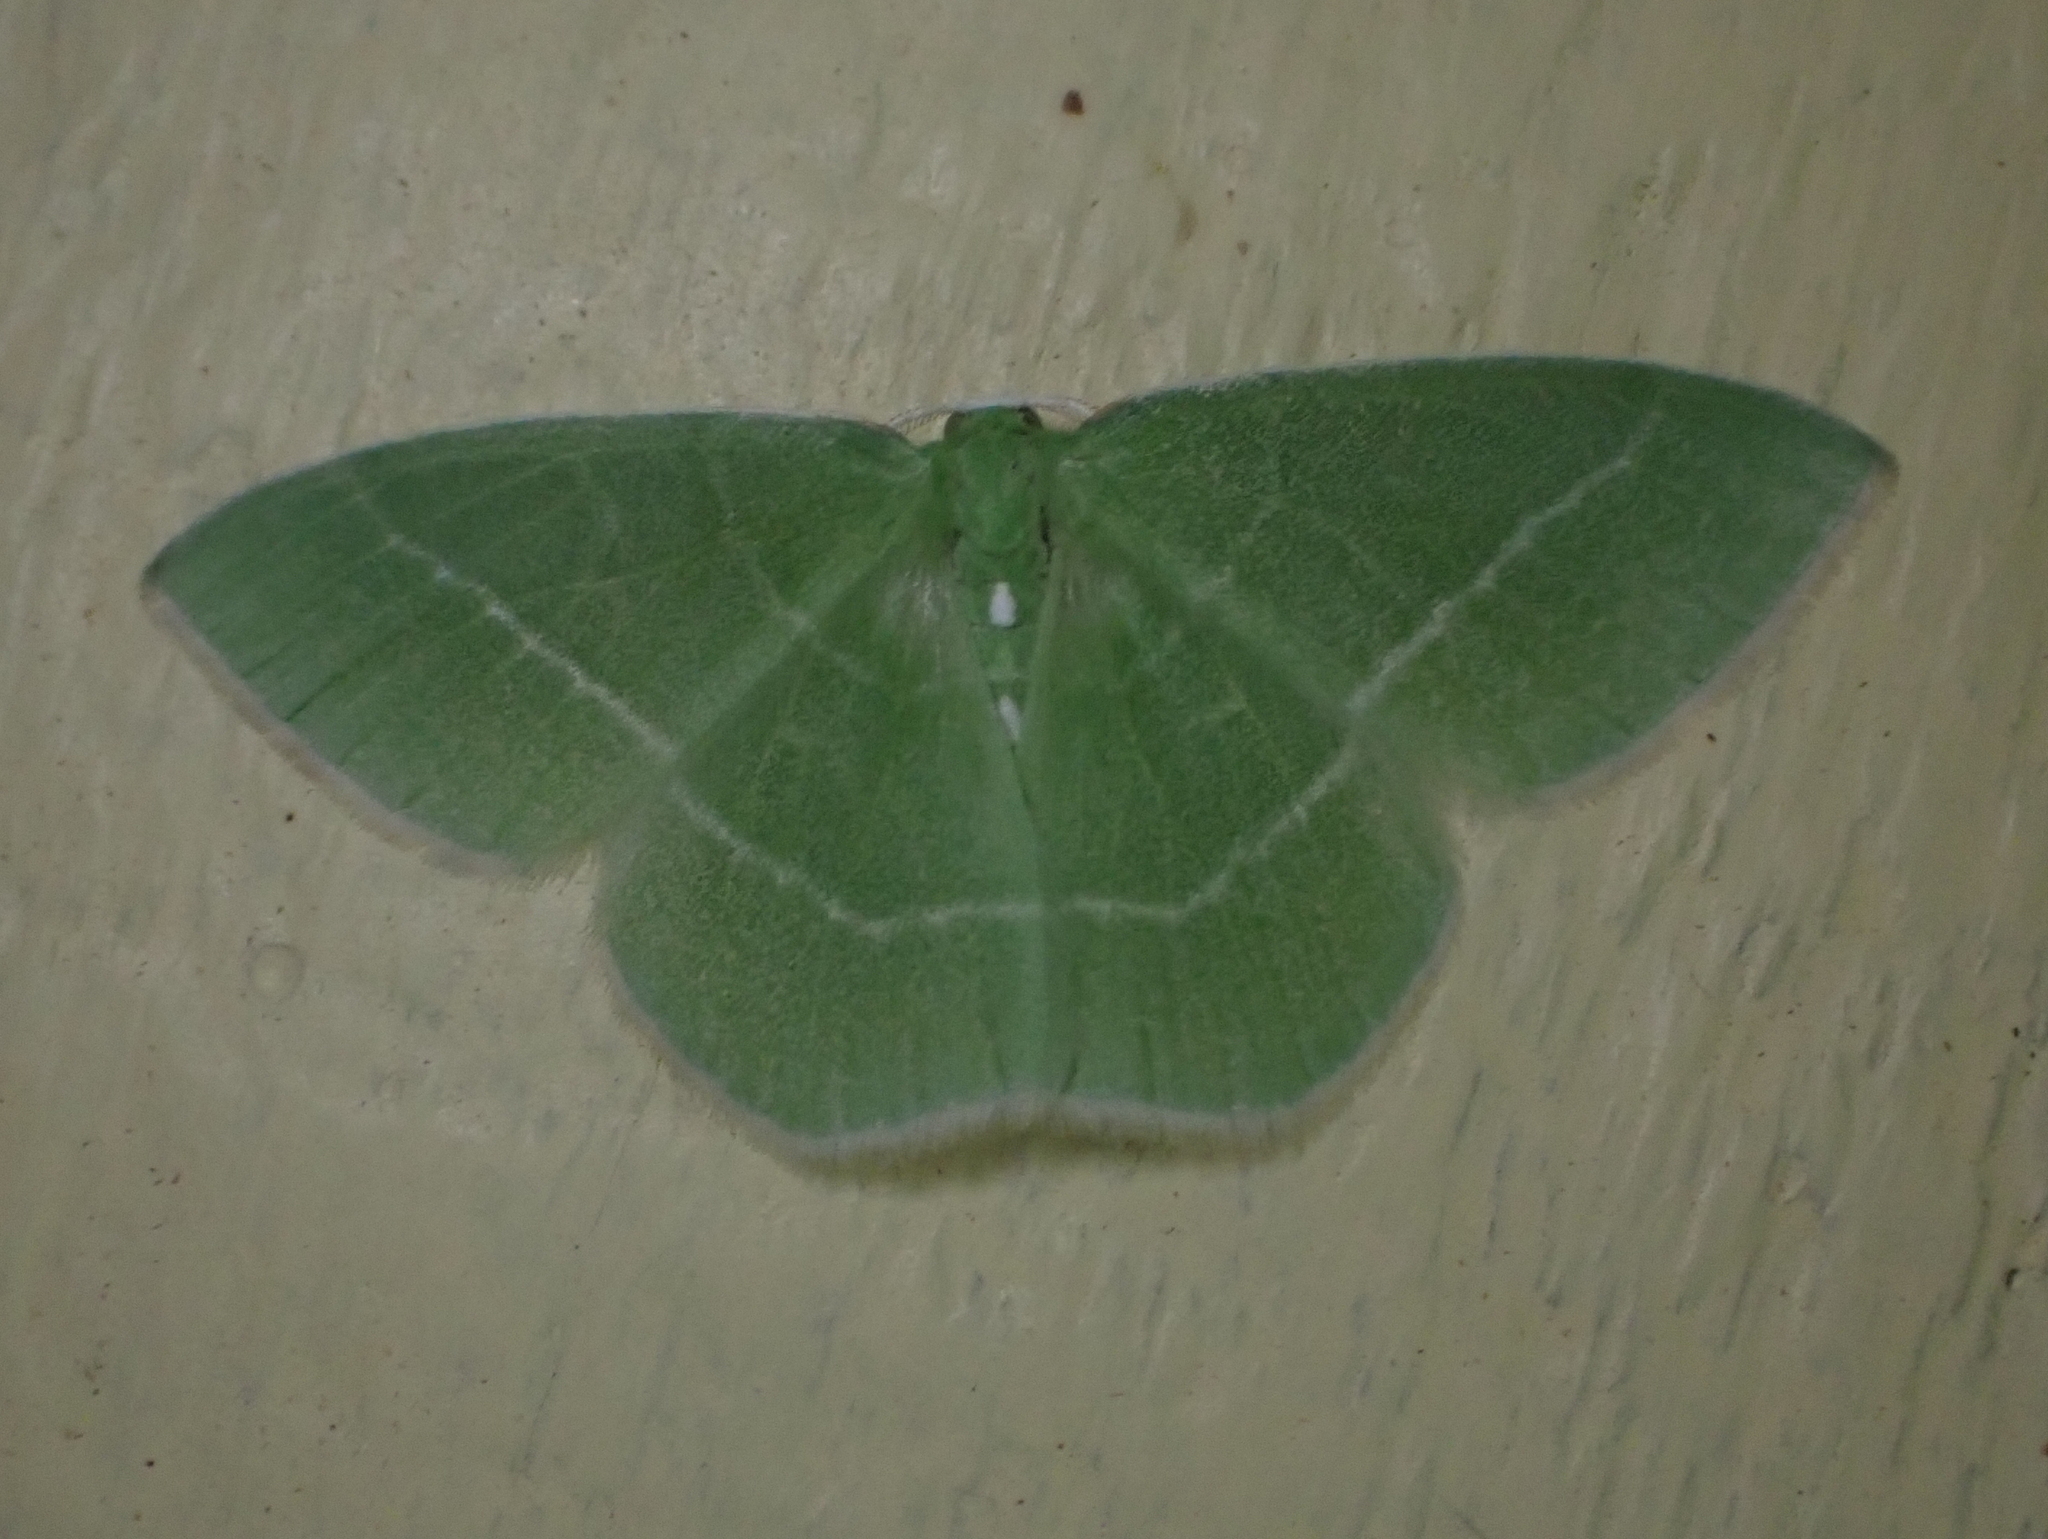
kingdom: Animalia
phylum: Arthropoda
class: Insecta
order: Lepidoptera
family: Geometridae
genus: Nemoria
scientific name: Nemoria mimosaria
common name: White-fringed emerald
